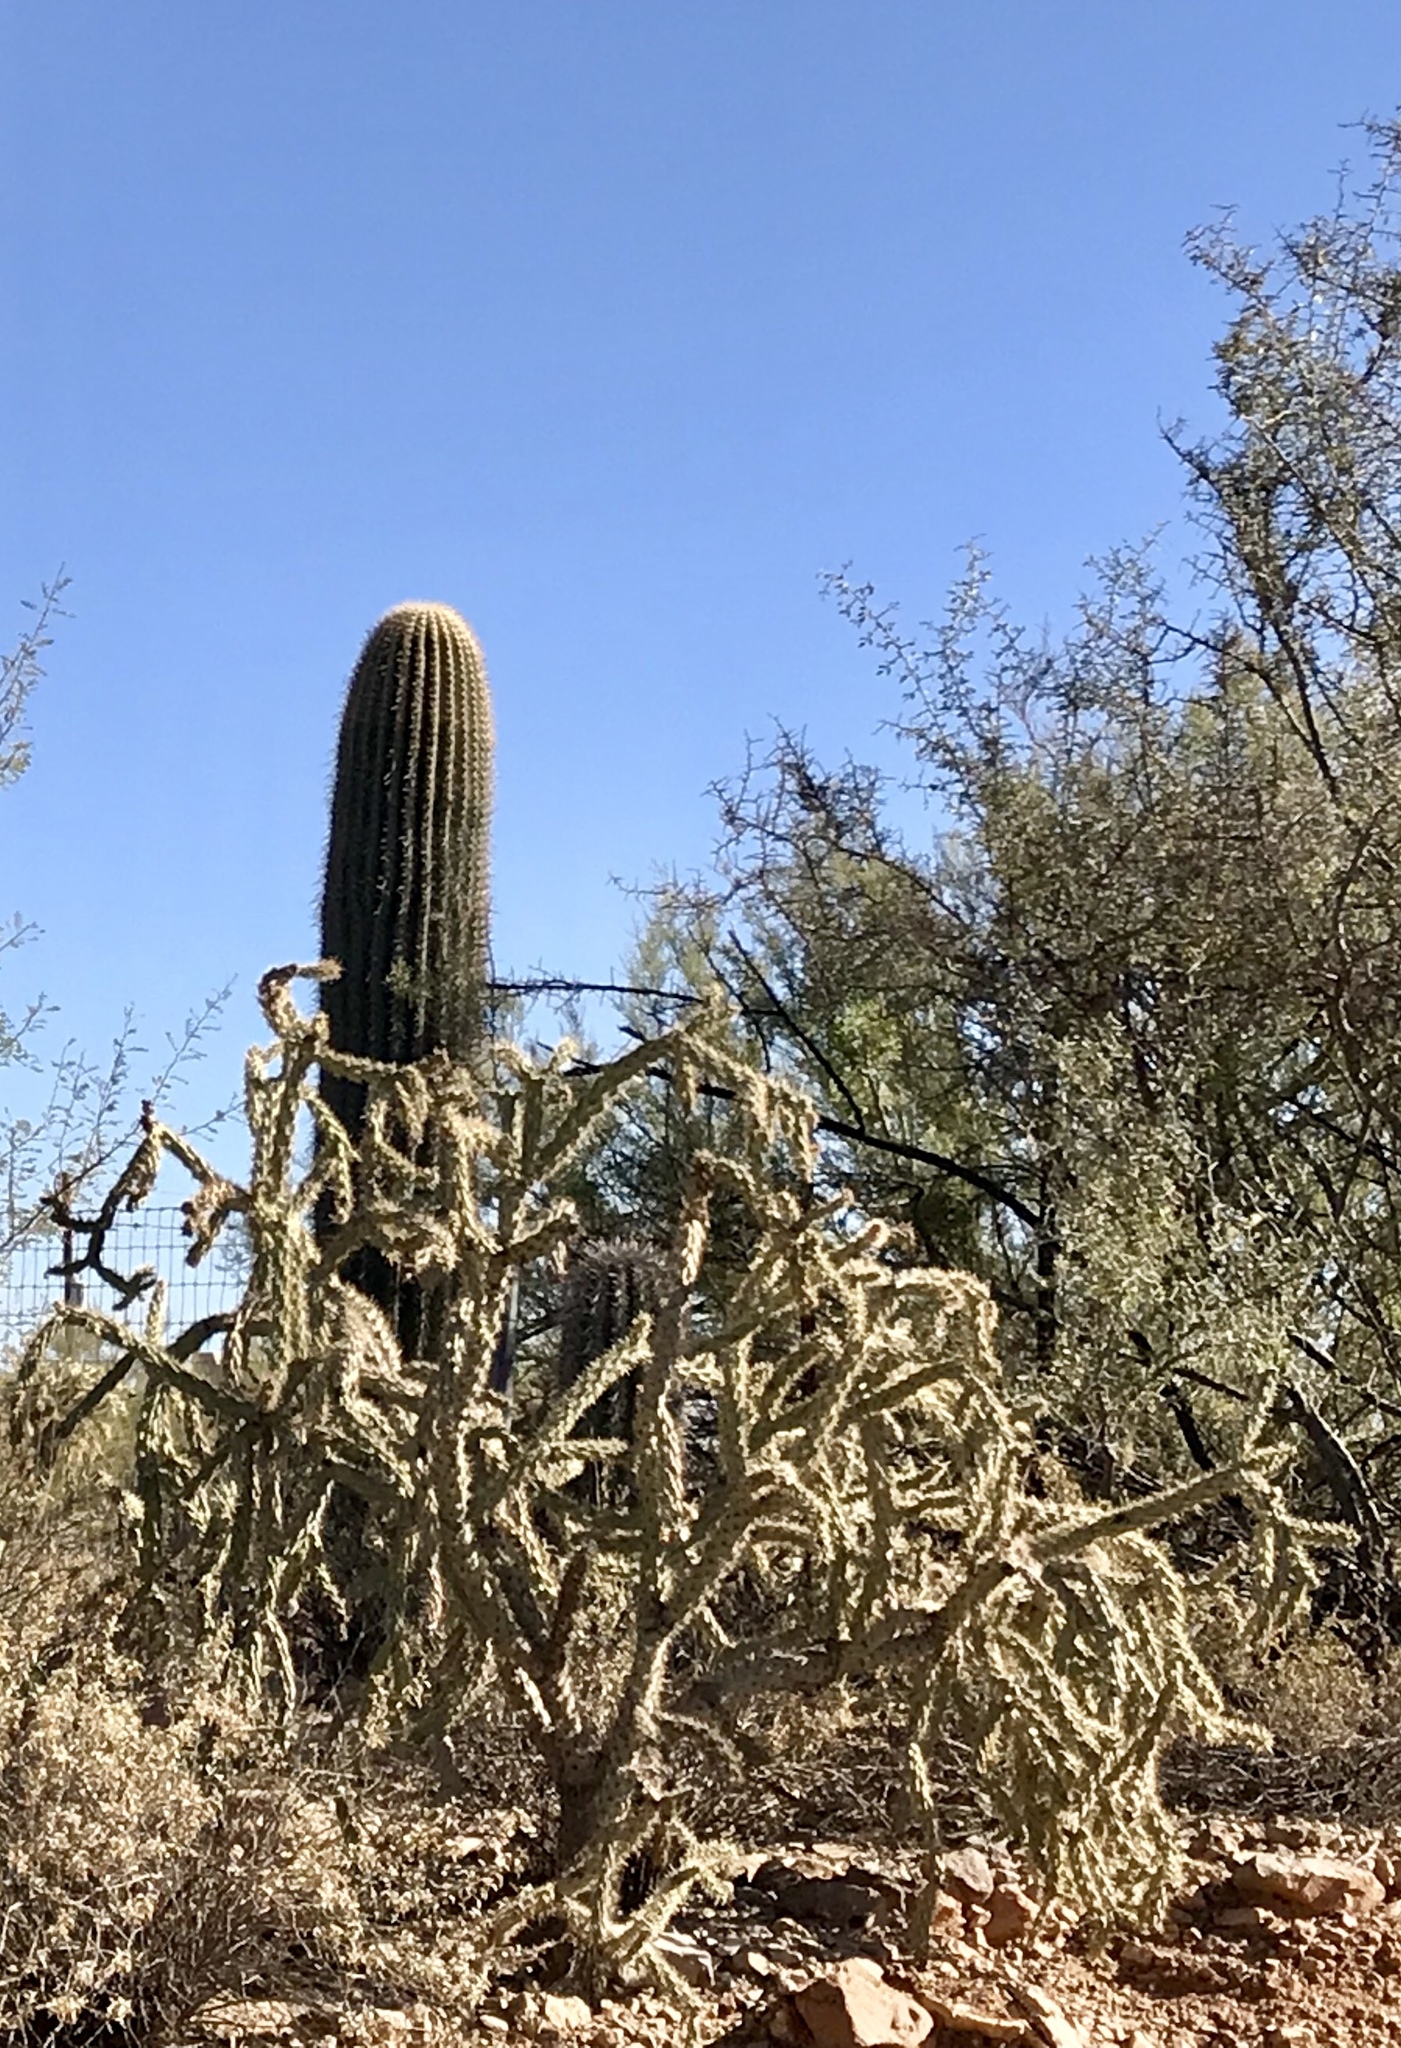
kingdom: Plantae
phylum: Tracheophyta
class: Magnoliopsida
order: Caryophyllales
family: Cactaceae
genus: Cylindropuntia
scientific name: Cylindropuntia acanthocarpa
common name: Buckhorn cholla
